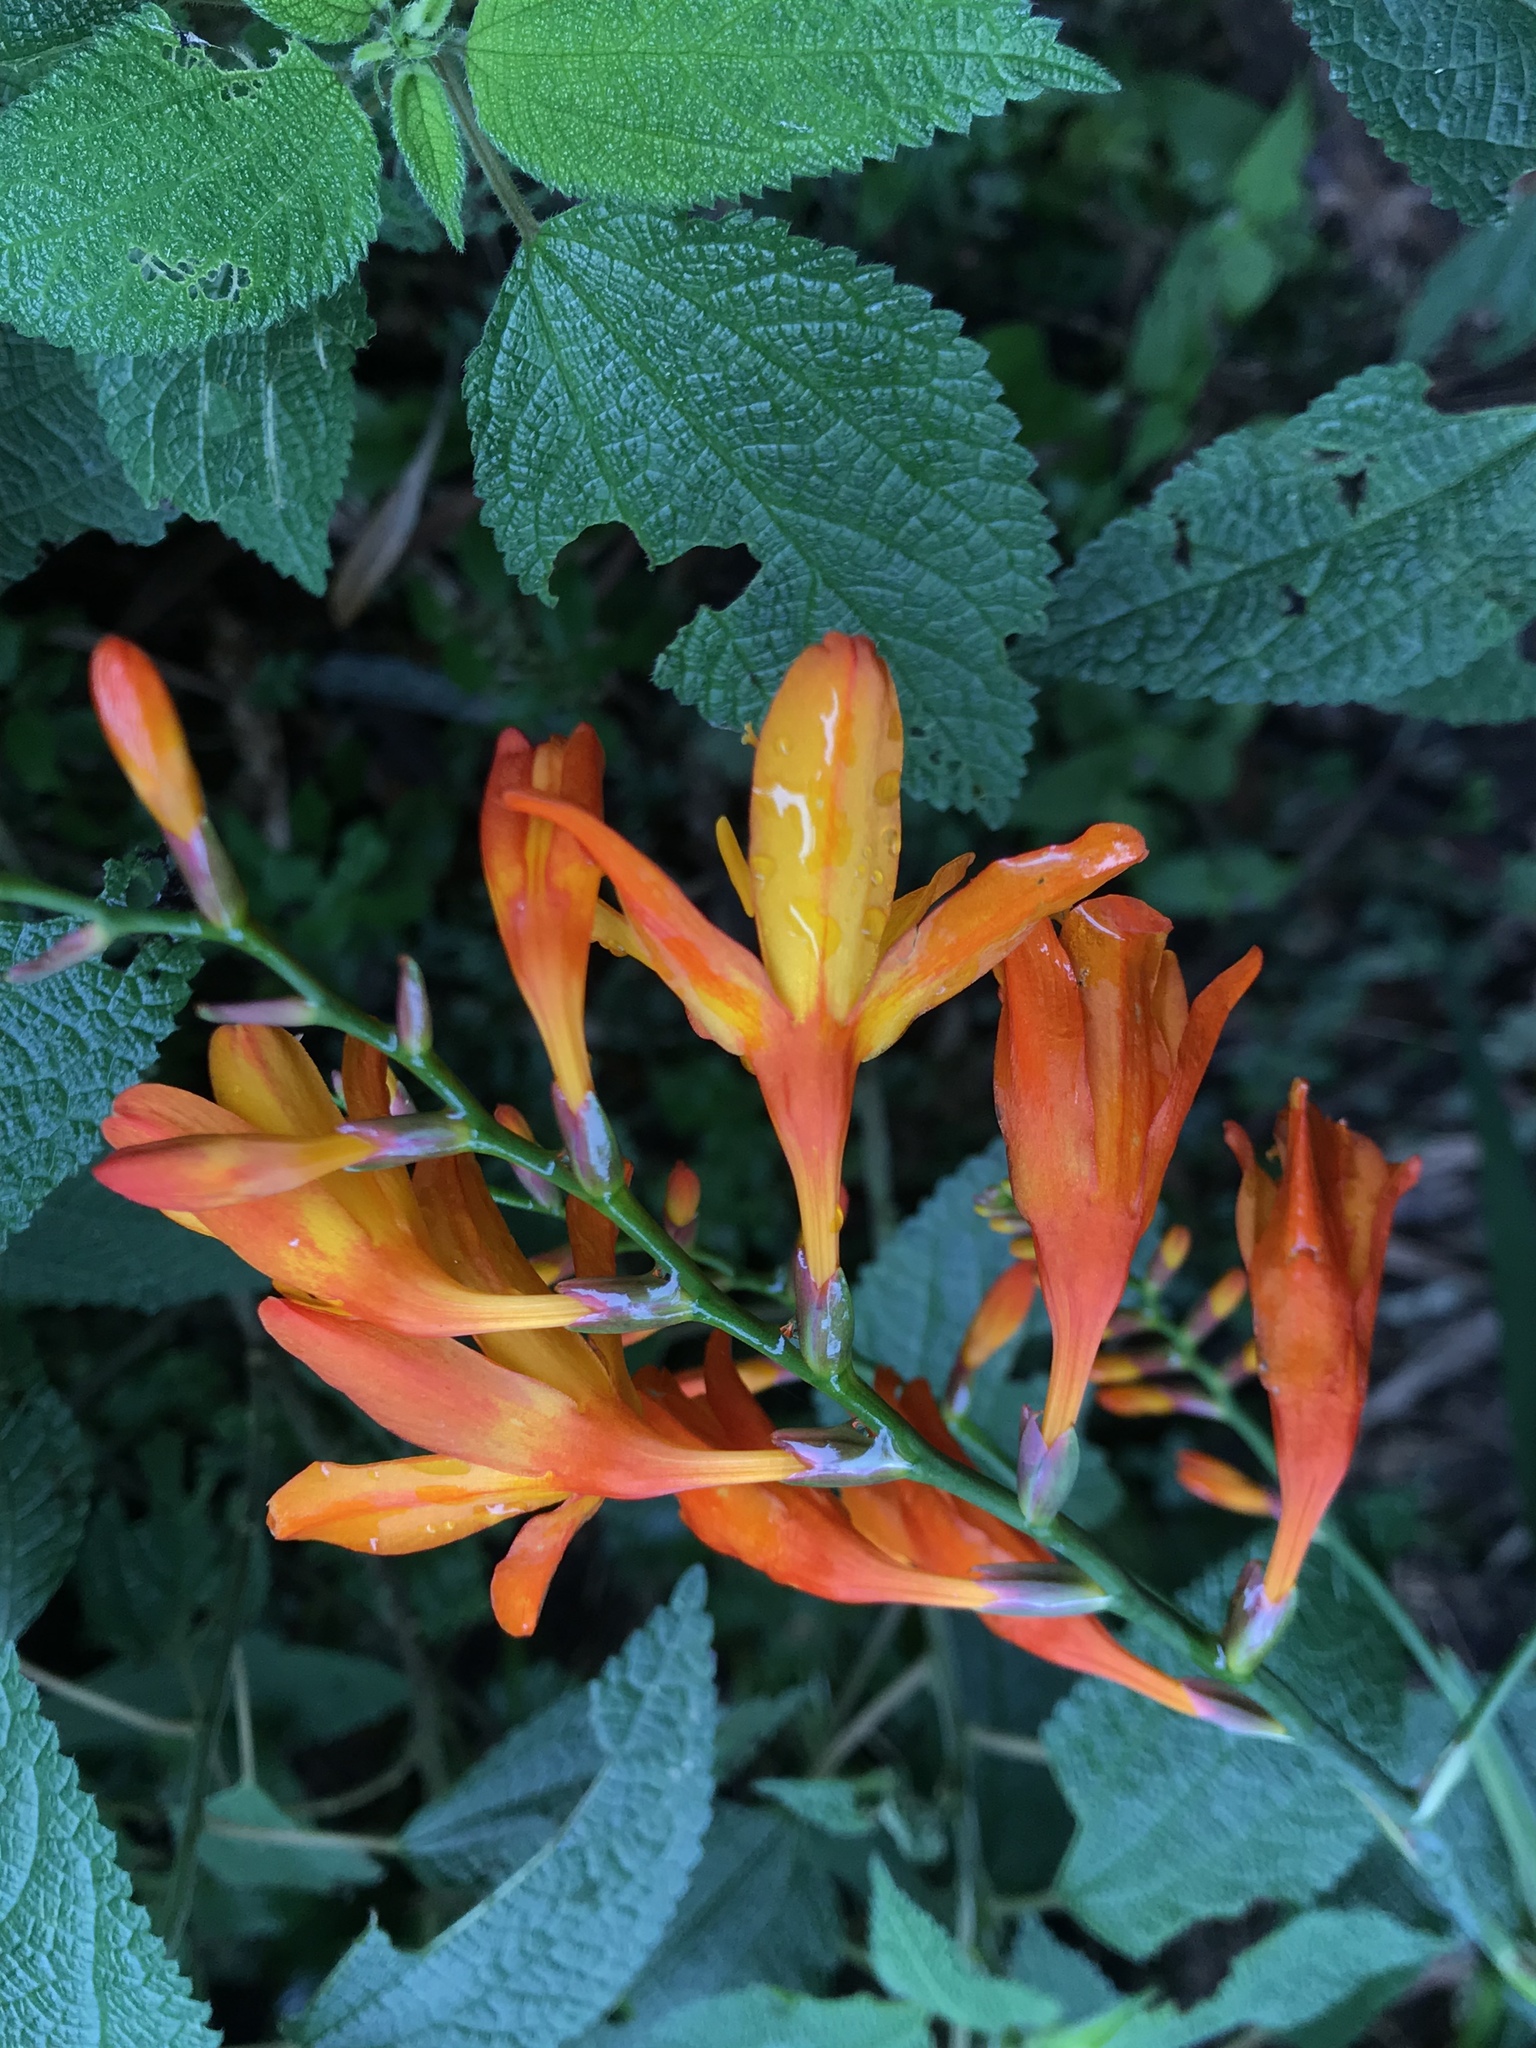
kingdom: Plantae
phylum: Tracheophyta
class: Liliopsida
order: Asparagales
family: Iridaceae
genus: Crocosmia
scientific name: Crocosmia crocosmiiflora
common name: Montbretia
